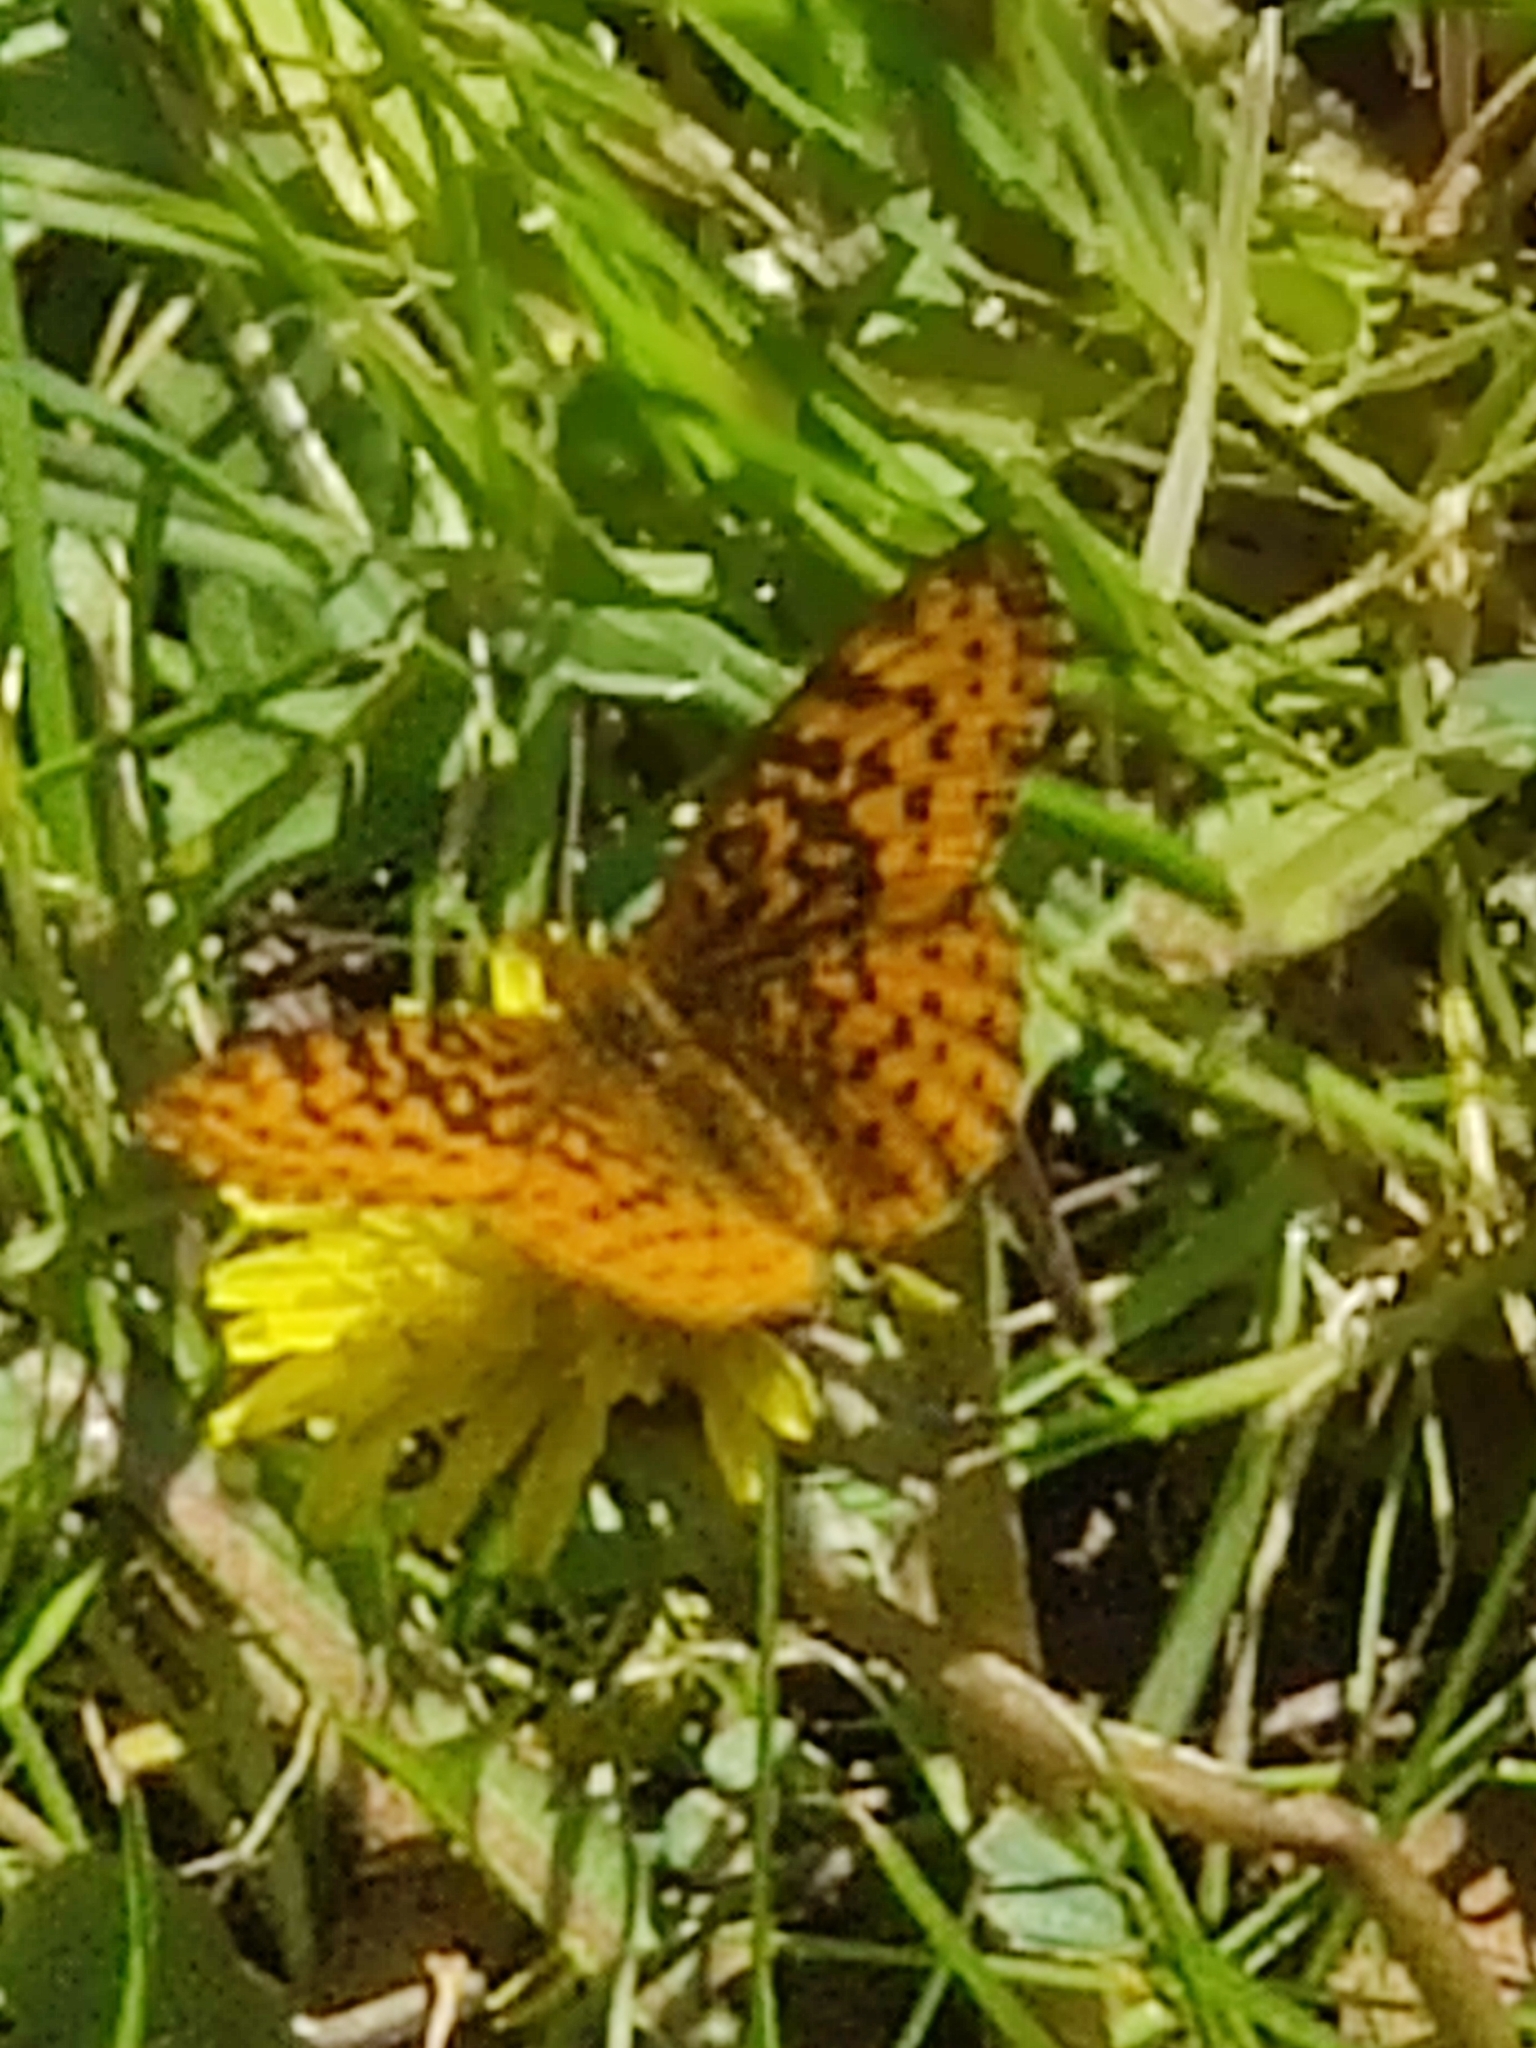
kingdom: Animalia
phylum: Arthropoda
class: Insecta
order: Lepidoptera
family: Nymphalidae
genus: Clossiana
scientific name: Clossiana toddi
